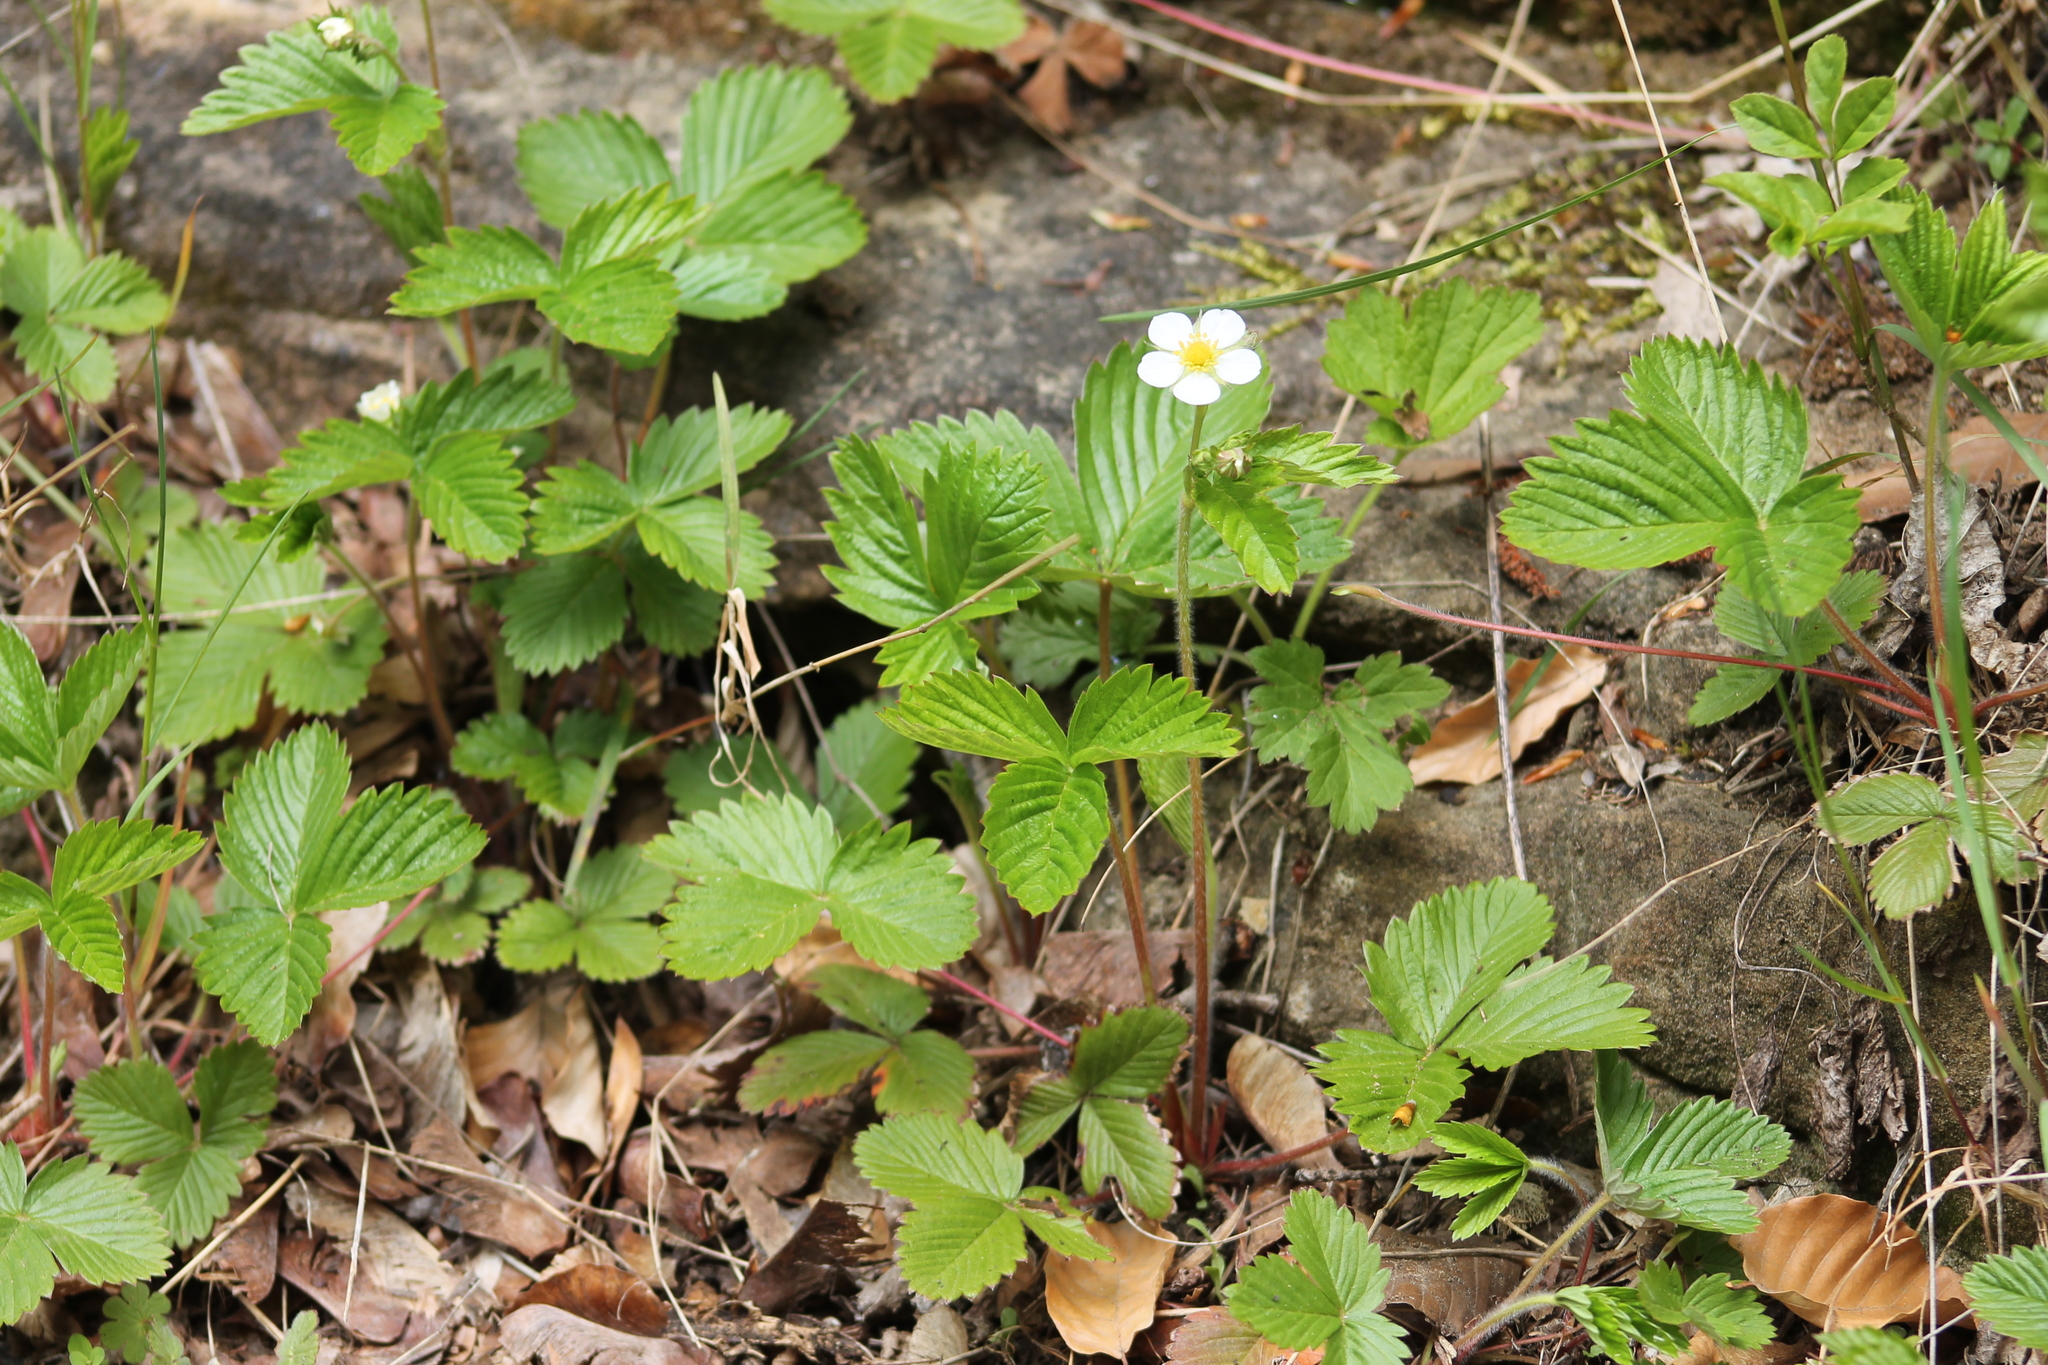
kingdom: Plantae
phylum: Tracheophyta
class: Magnoliopsida
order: Rosales
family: Rosaceae
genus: Fragaria
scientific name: Fragaria vesca
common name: Wild strawberry
